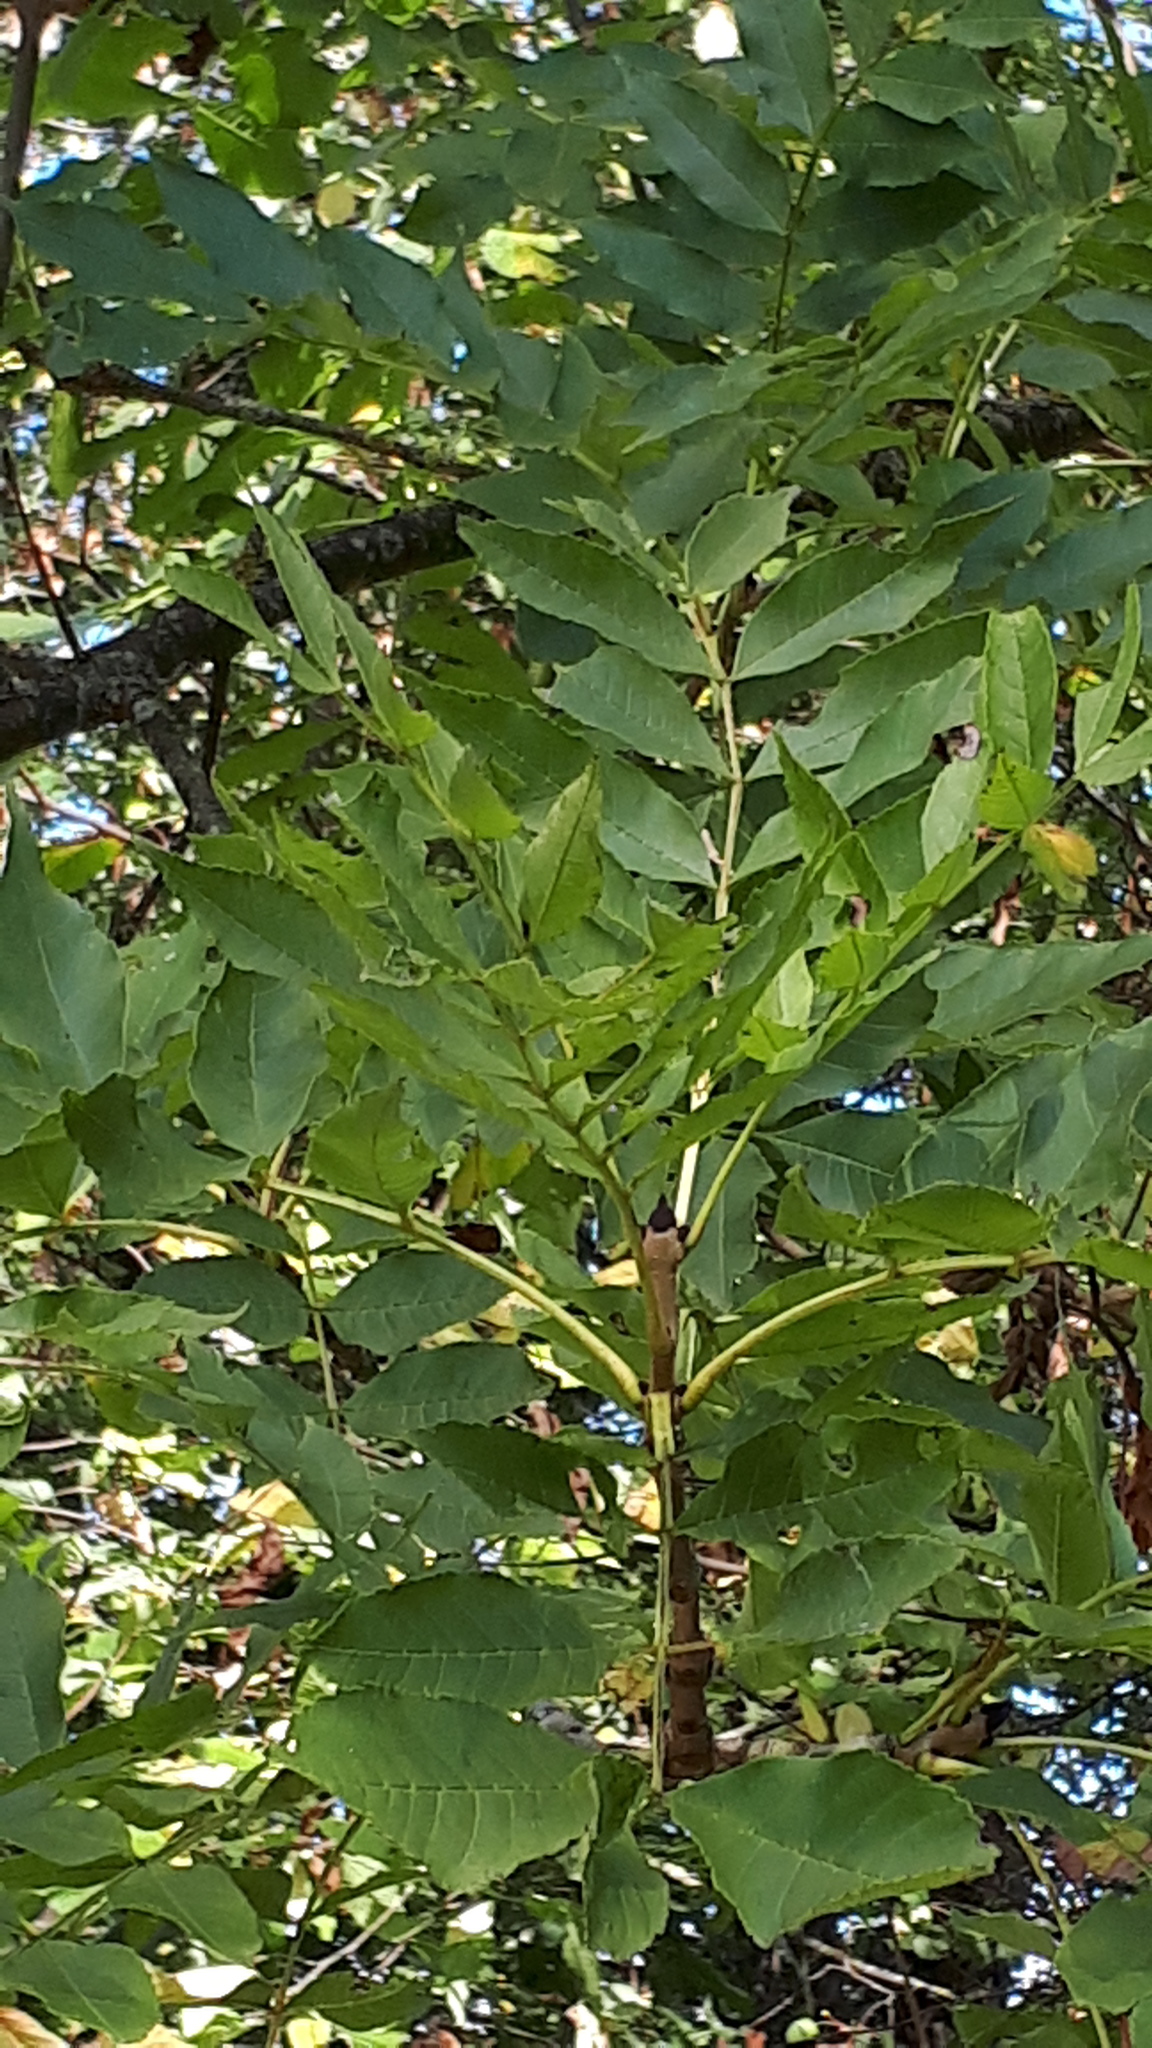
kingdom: Plantae
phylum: Tracheophyta
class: Magnoliopsida
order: Lamiales
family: Oleaceae
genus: Fraxinus
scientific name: Fraxinus excelsior
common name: European ash
